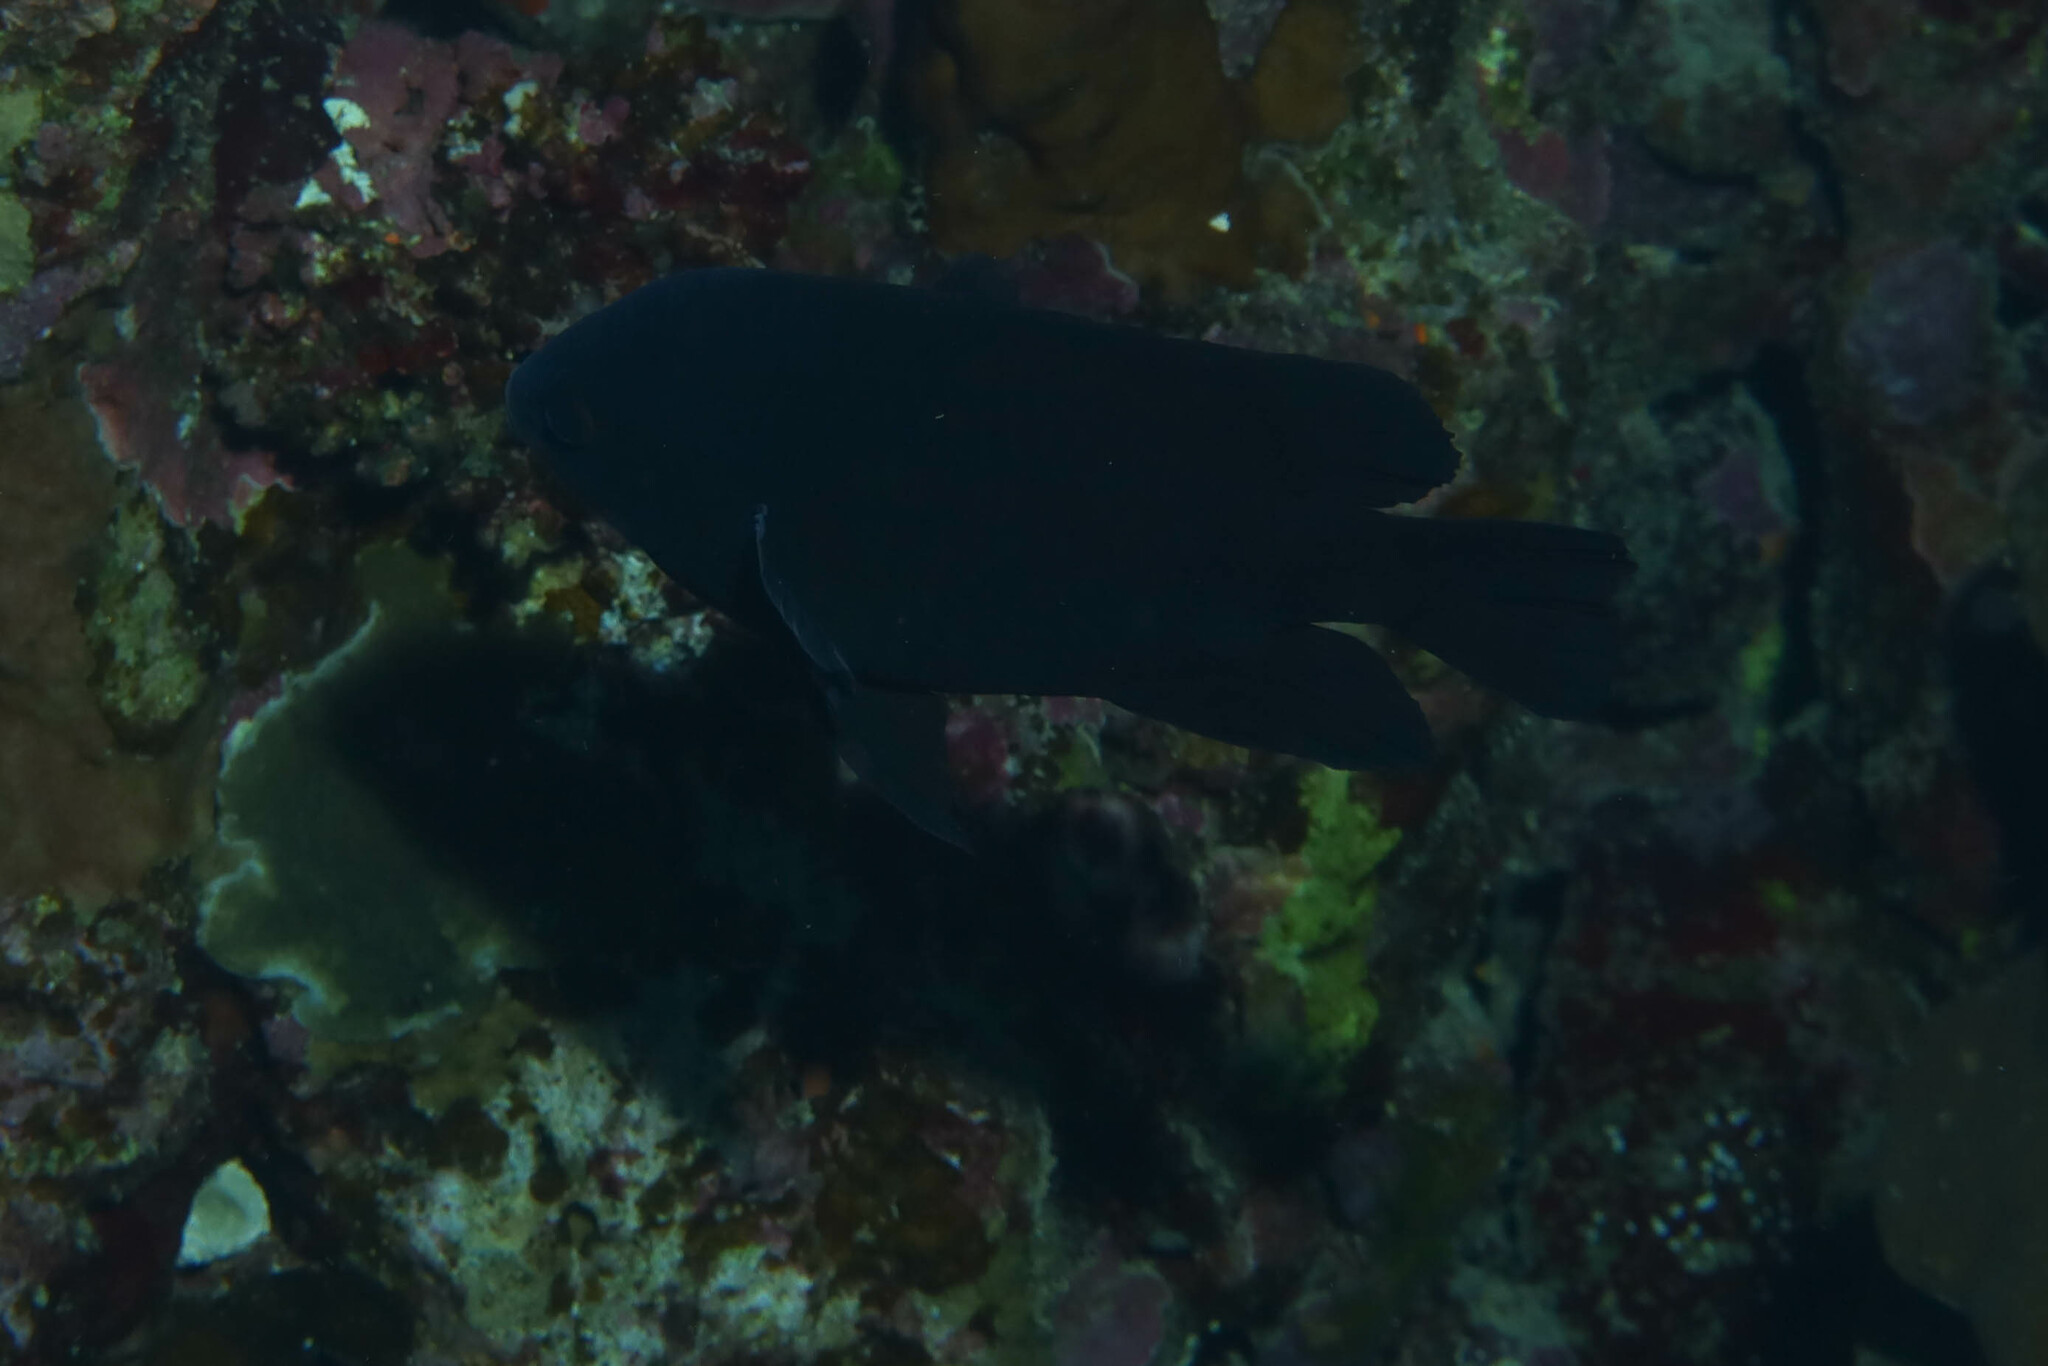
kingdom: Animalia
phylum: Chordata
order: Perciformes
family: Pomacentridae
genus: Neoglyphidodon
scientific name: Neoglyphidodon melas
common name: Black damsel
